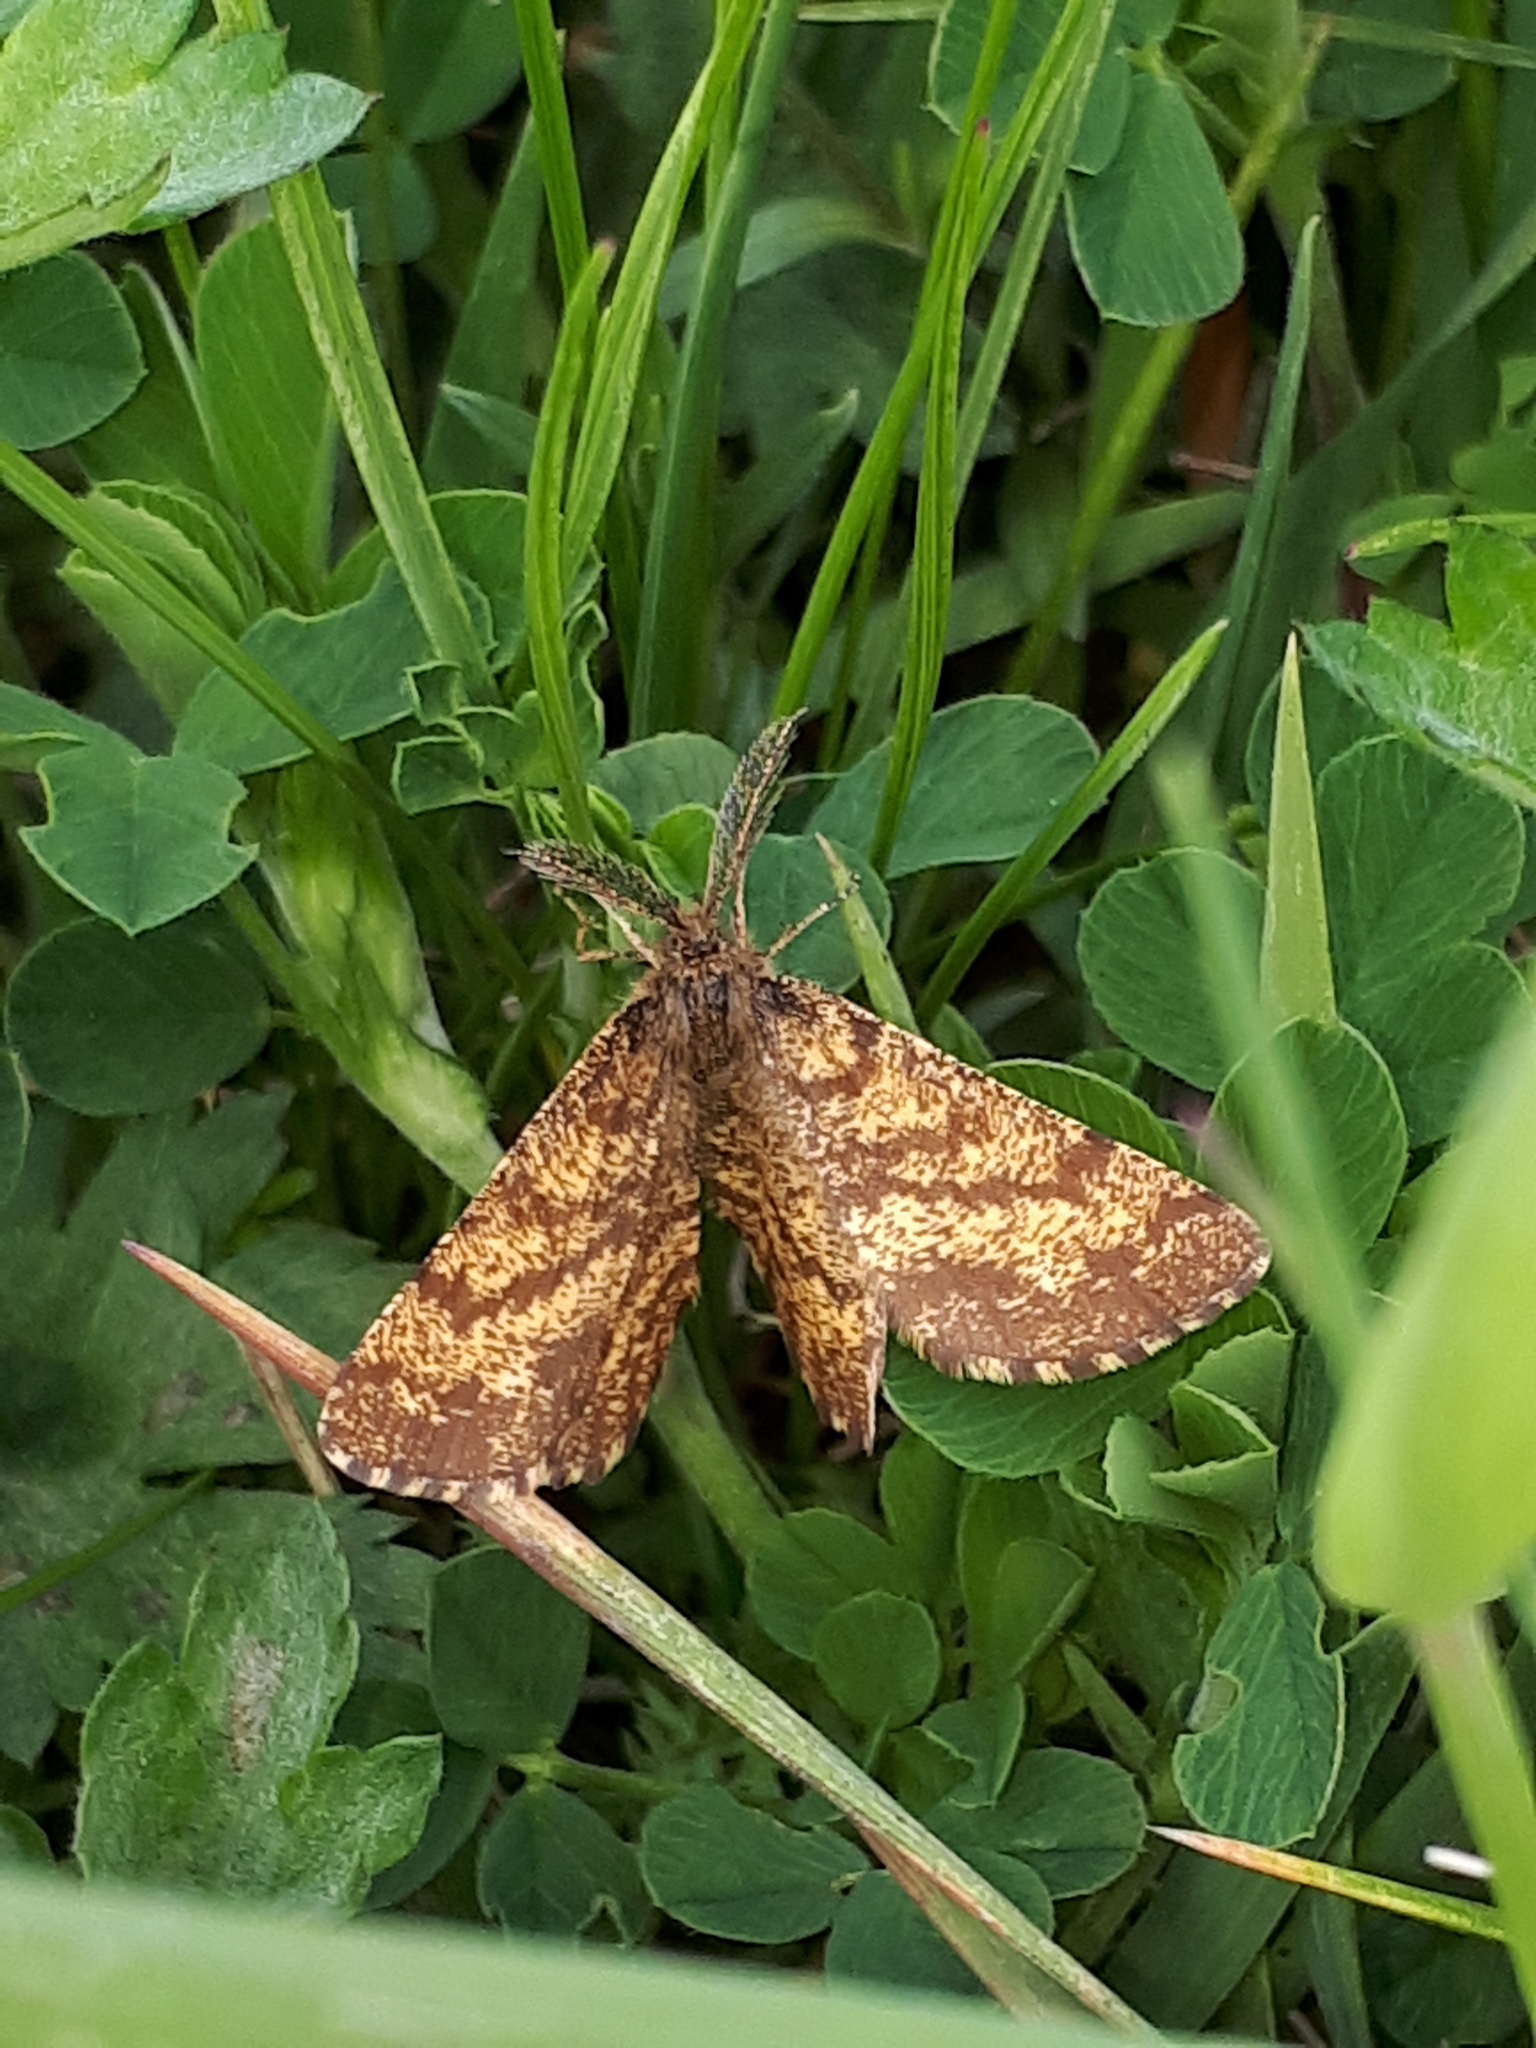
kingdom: Animalia
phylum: Arthropoda
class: Insecta
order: Lepidoptera
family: Geometridae
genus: Ematurga
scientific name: Ematurga atomaria
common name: Common heath
